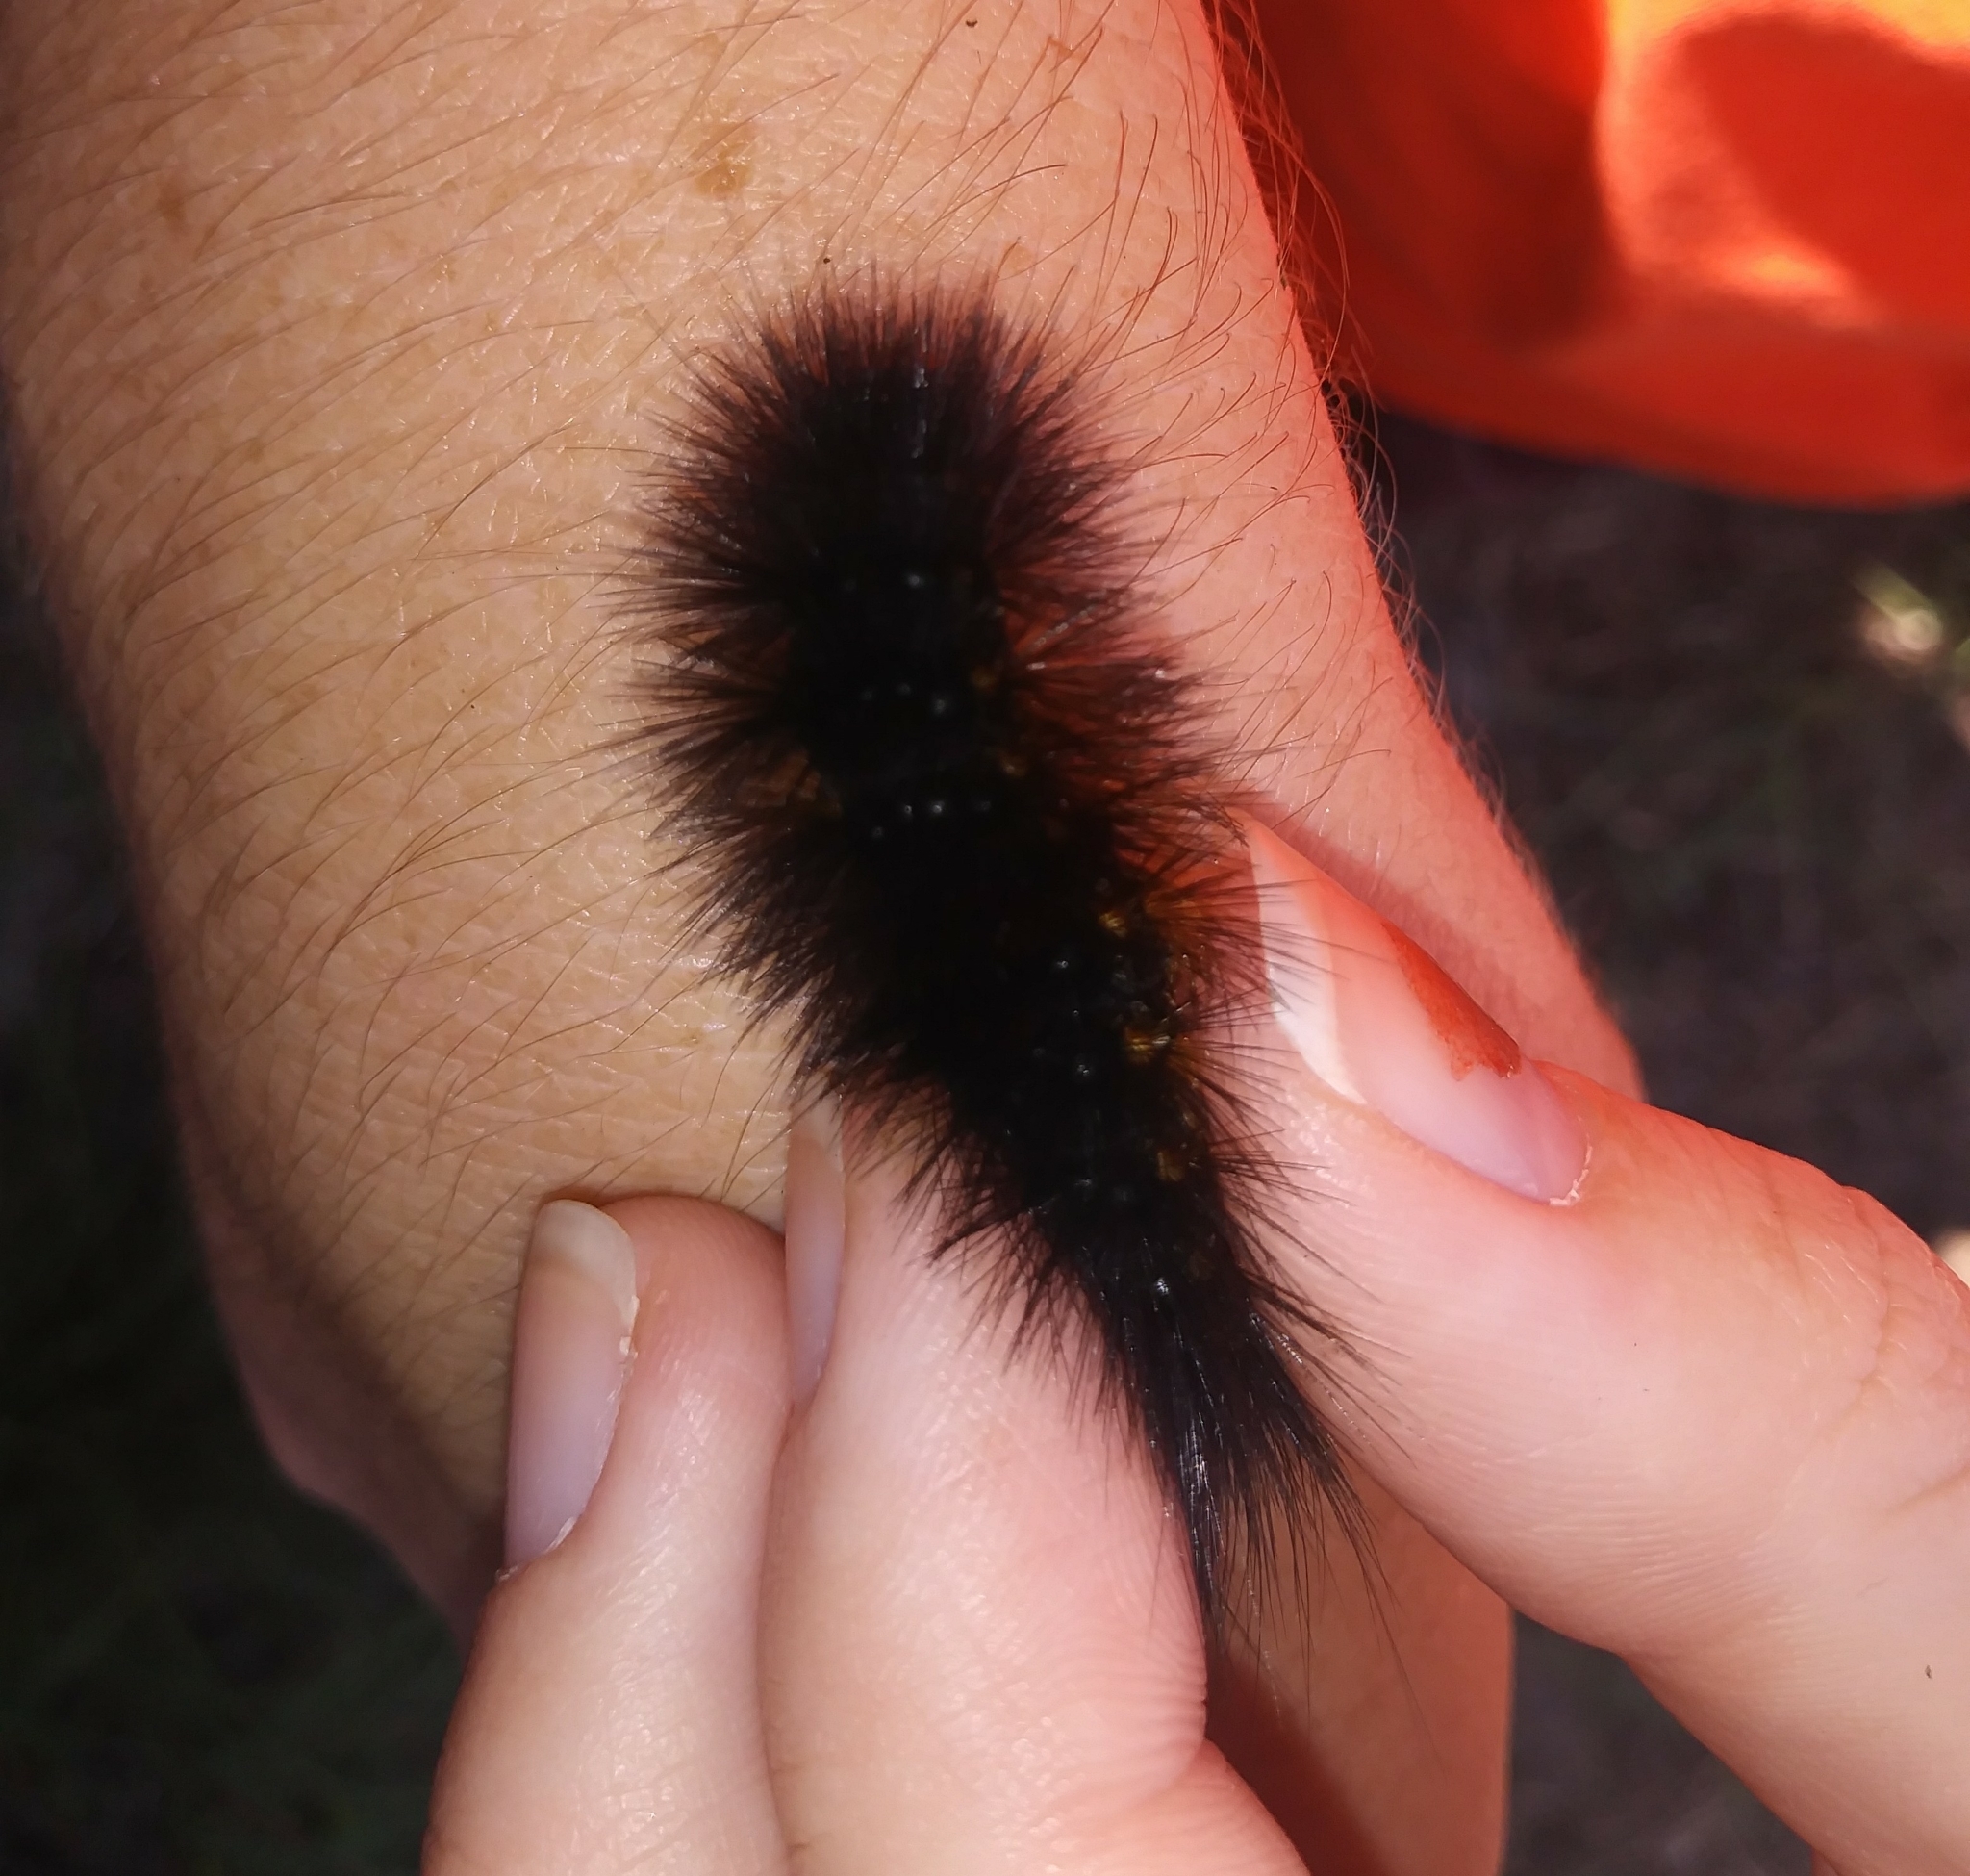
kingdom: Animalia
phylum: Arthropoda
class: Insecta
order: Lepidoptera
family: Erebidae
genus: Estigmene
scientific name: Estigmene acrea
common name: Salt marsh moth
